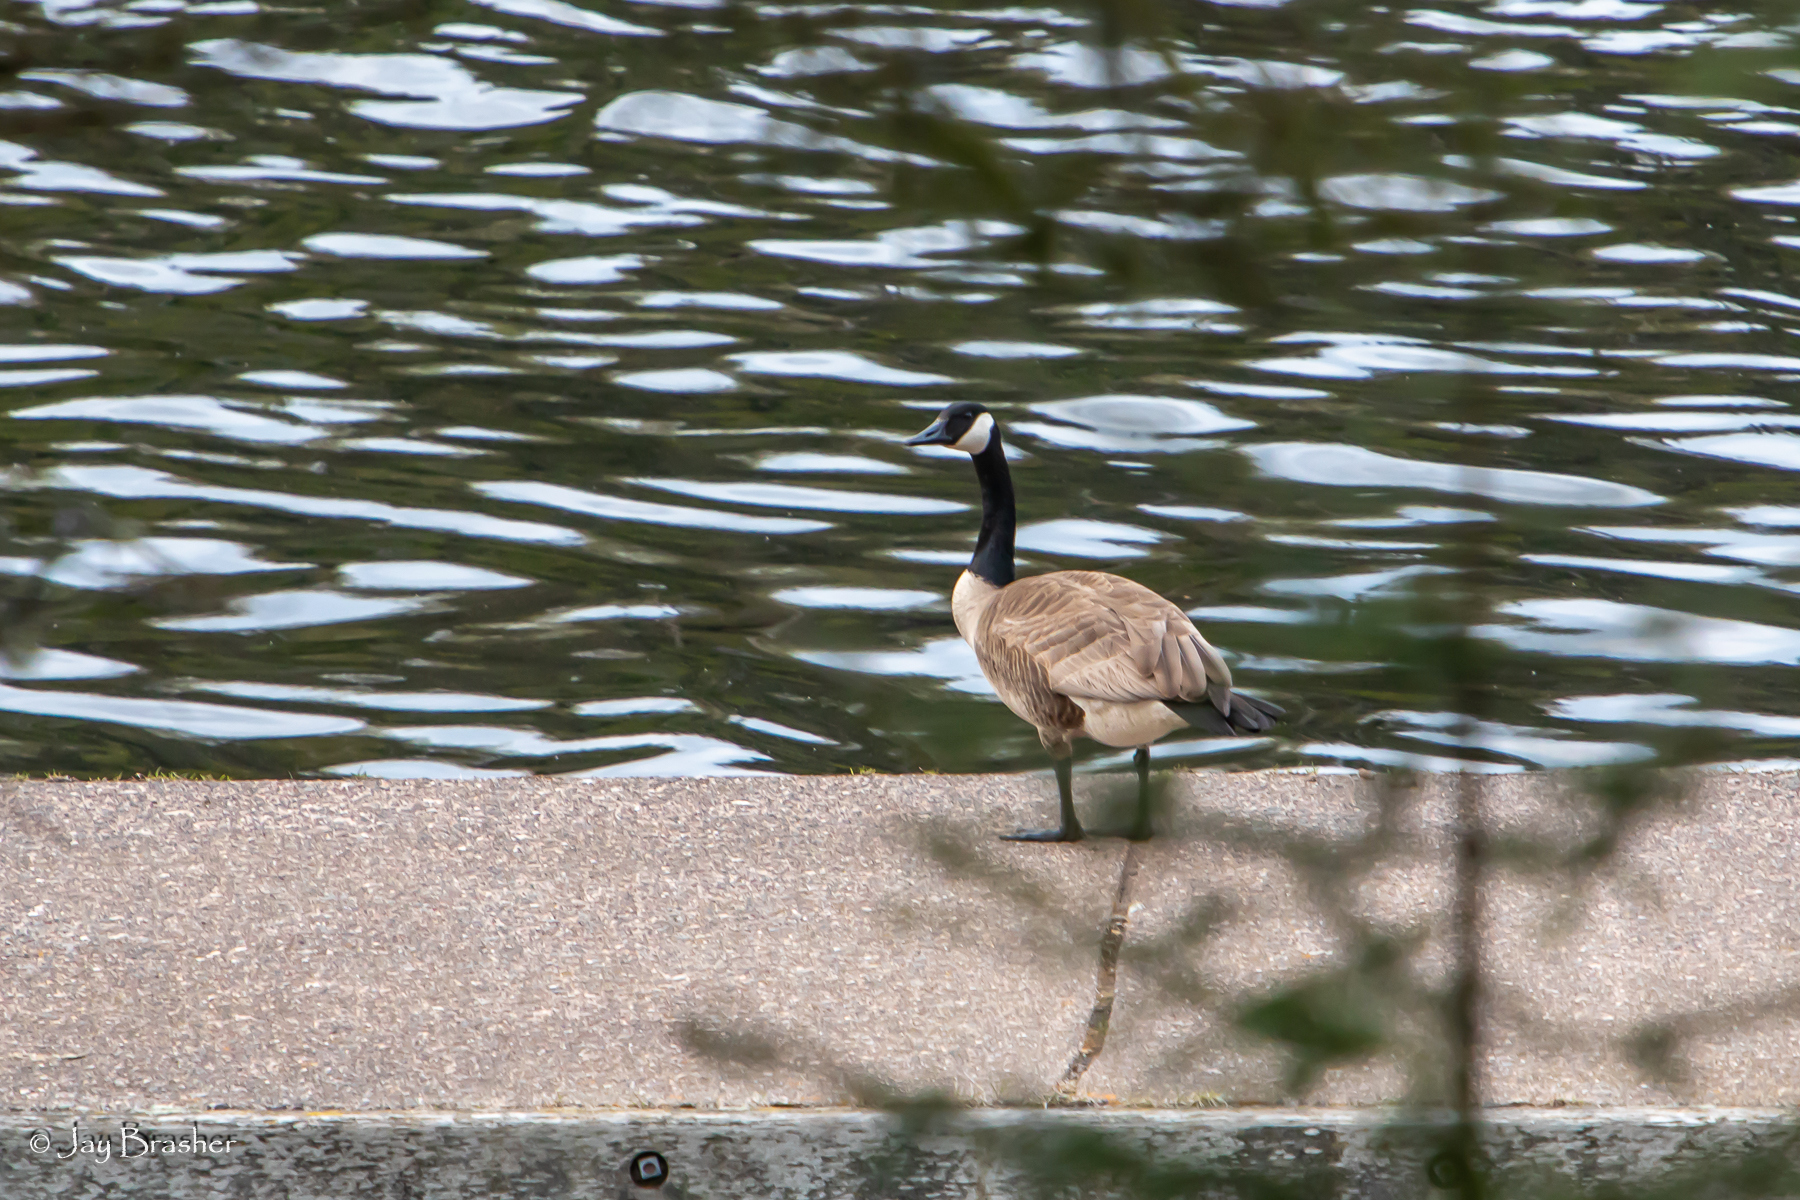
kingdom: Animalia
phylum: Chordata
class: Aves
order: Anseriformes
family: Anatidae
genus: Branta
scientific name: Branta canadensis
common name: Canada goose
